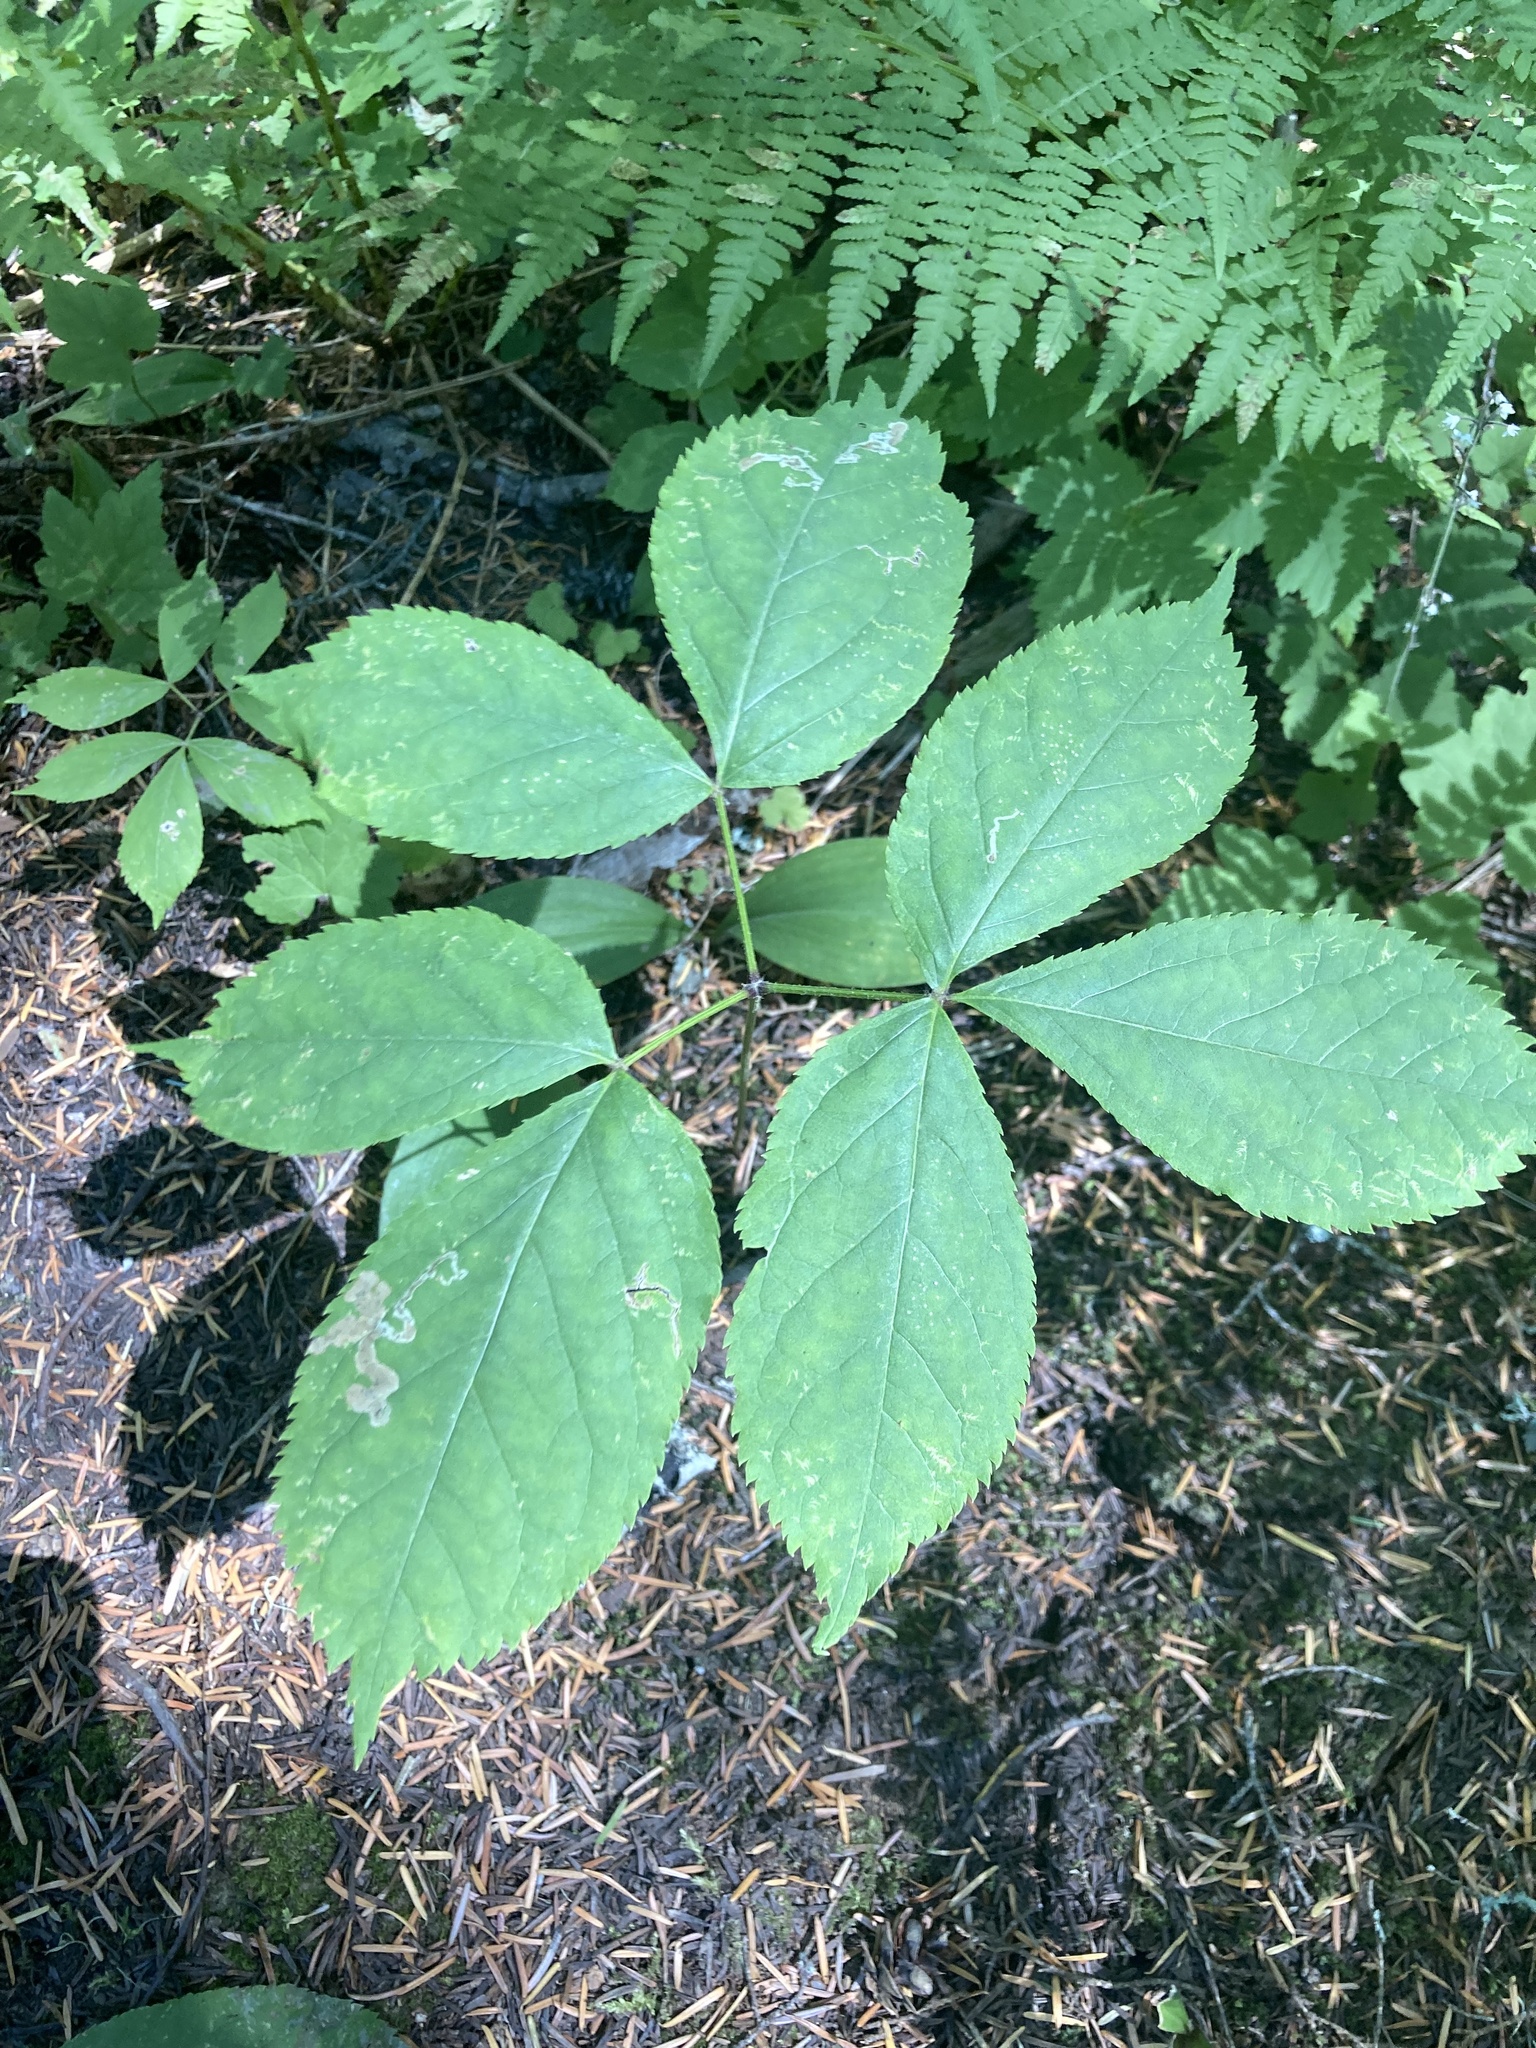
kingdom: Plantae
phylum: Tracheophyta
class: Magnoliopsida
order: Apiales
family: Araliaceae
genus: Aralia
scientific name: Aralia nudicaulis
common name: Wild sarsaparilla
